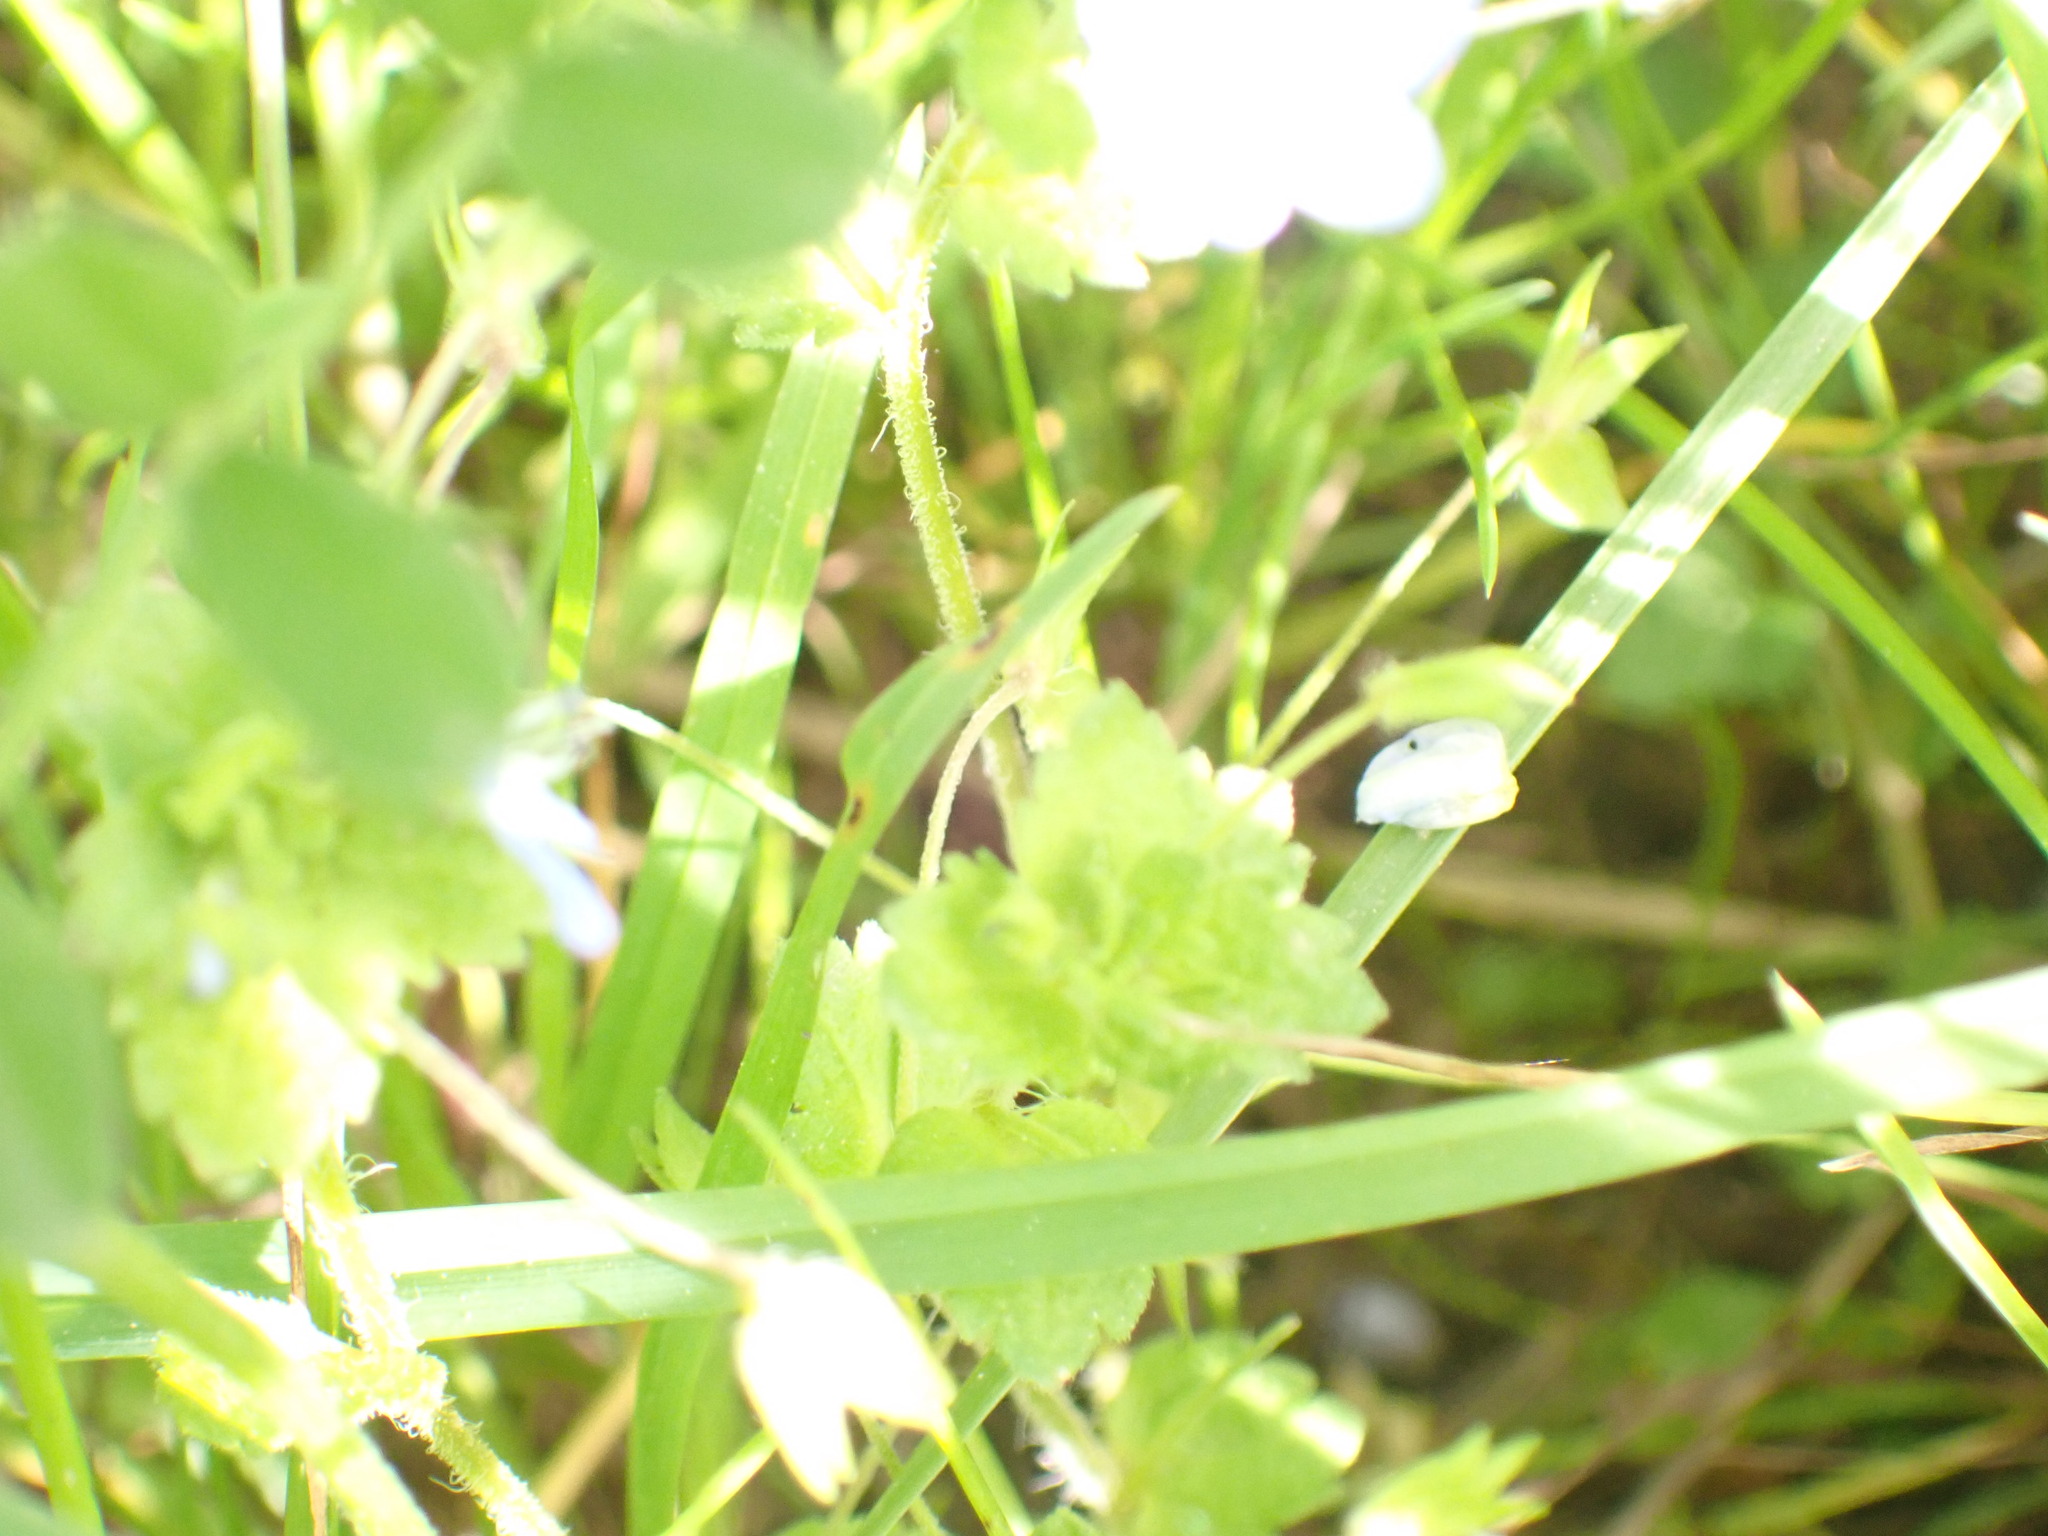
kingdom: Plantae
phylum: Tracheophyta
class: Magnoliopsida
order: Lamiales
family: Plantaginaceae
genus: Veronica
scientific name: Veronica persica
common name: Common field-speedwell
